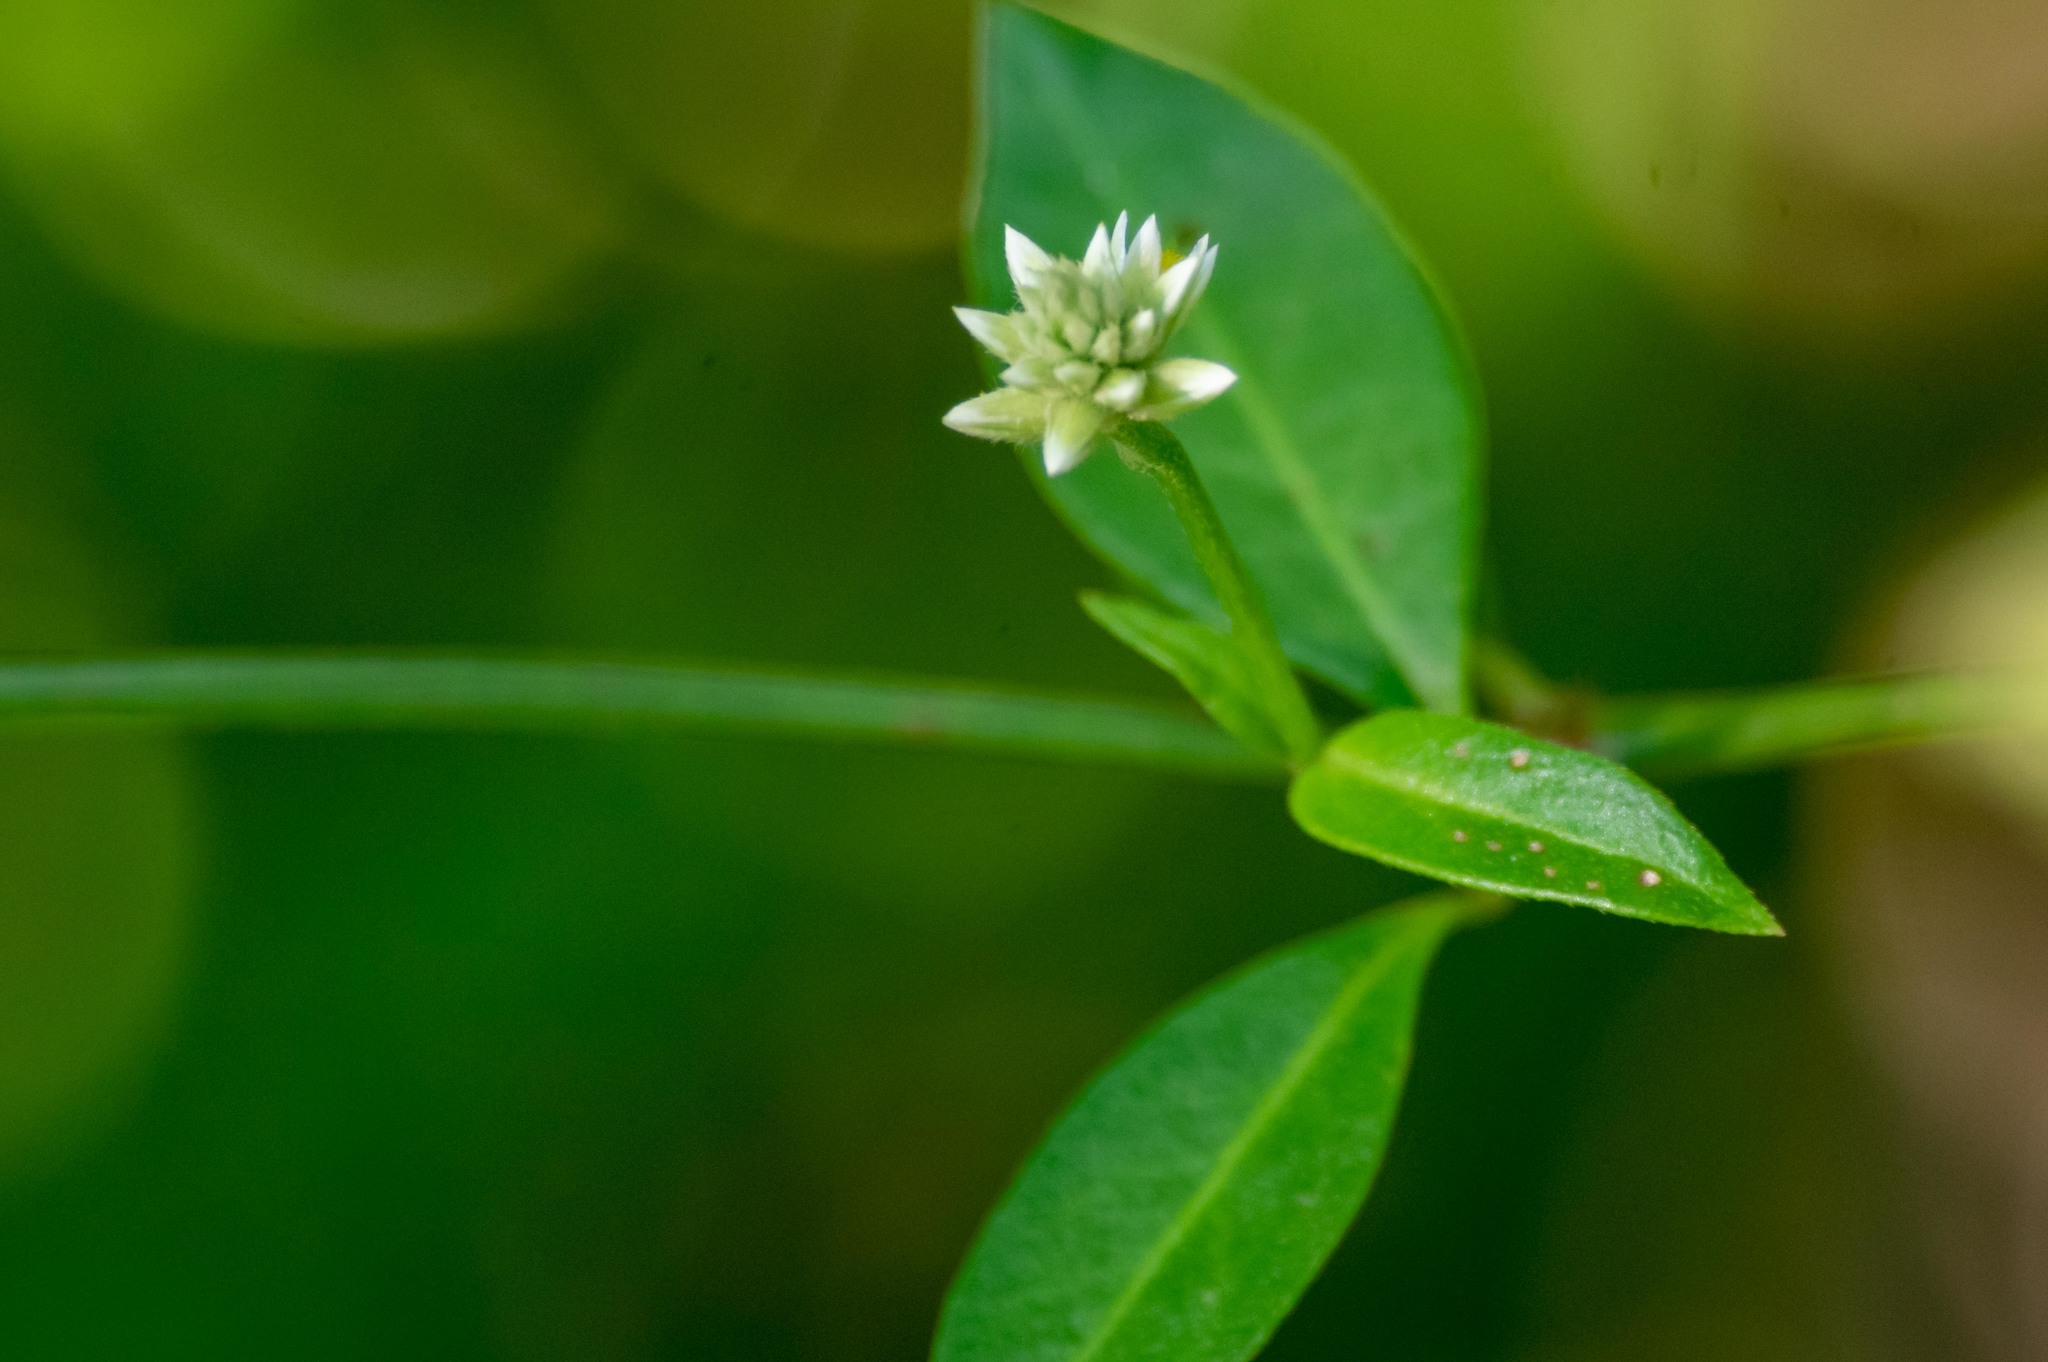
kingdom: Plantae
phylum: Tracheophyta
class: Magnoliopsida
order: Caryophyllales
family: Amaranthaceae
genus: Alternanthera
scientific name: Alternanthera flavescens
